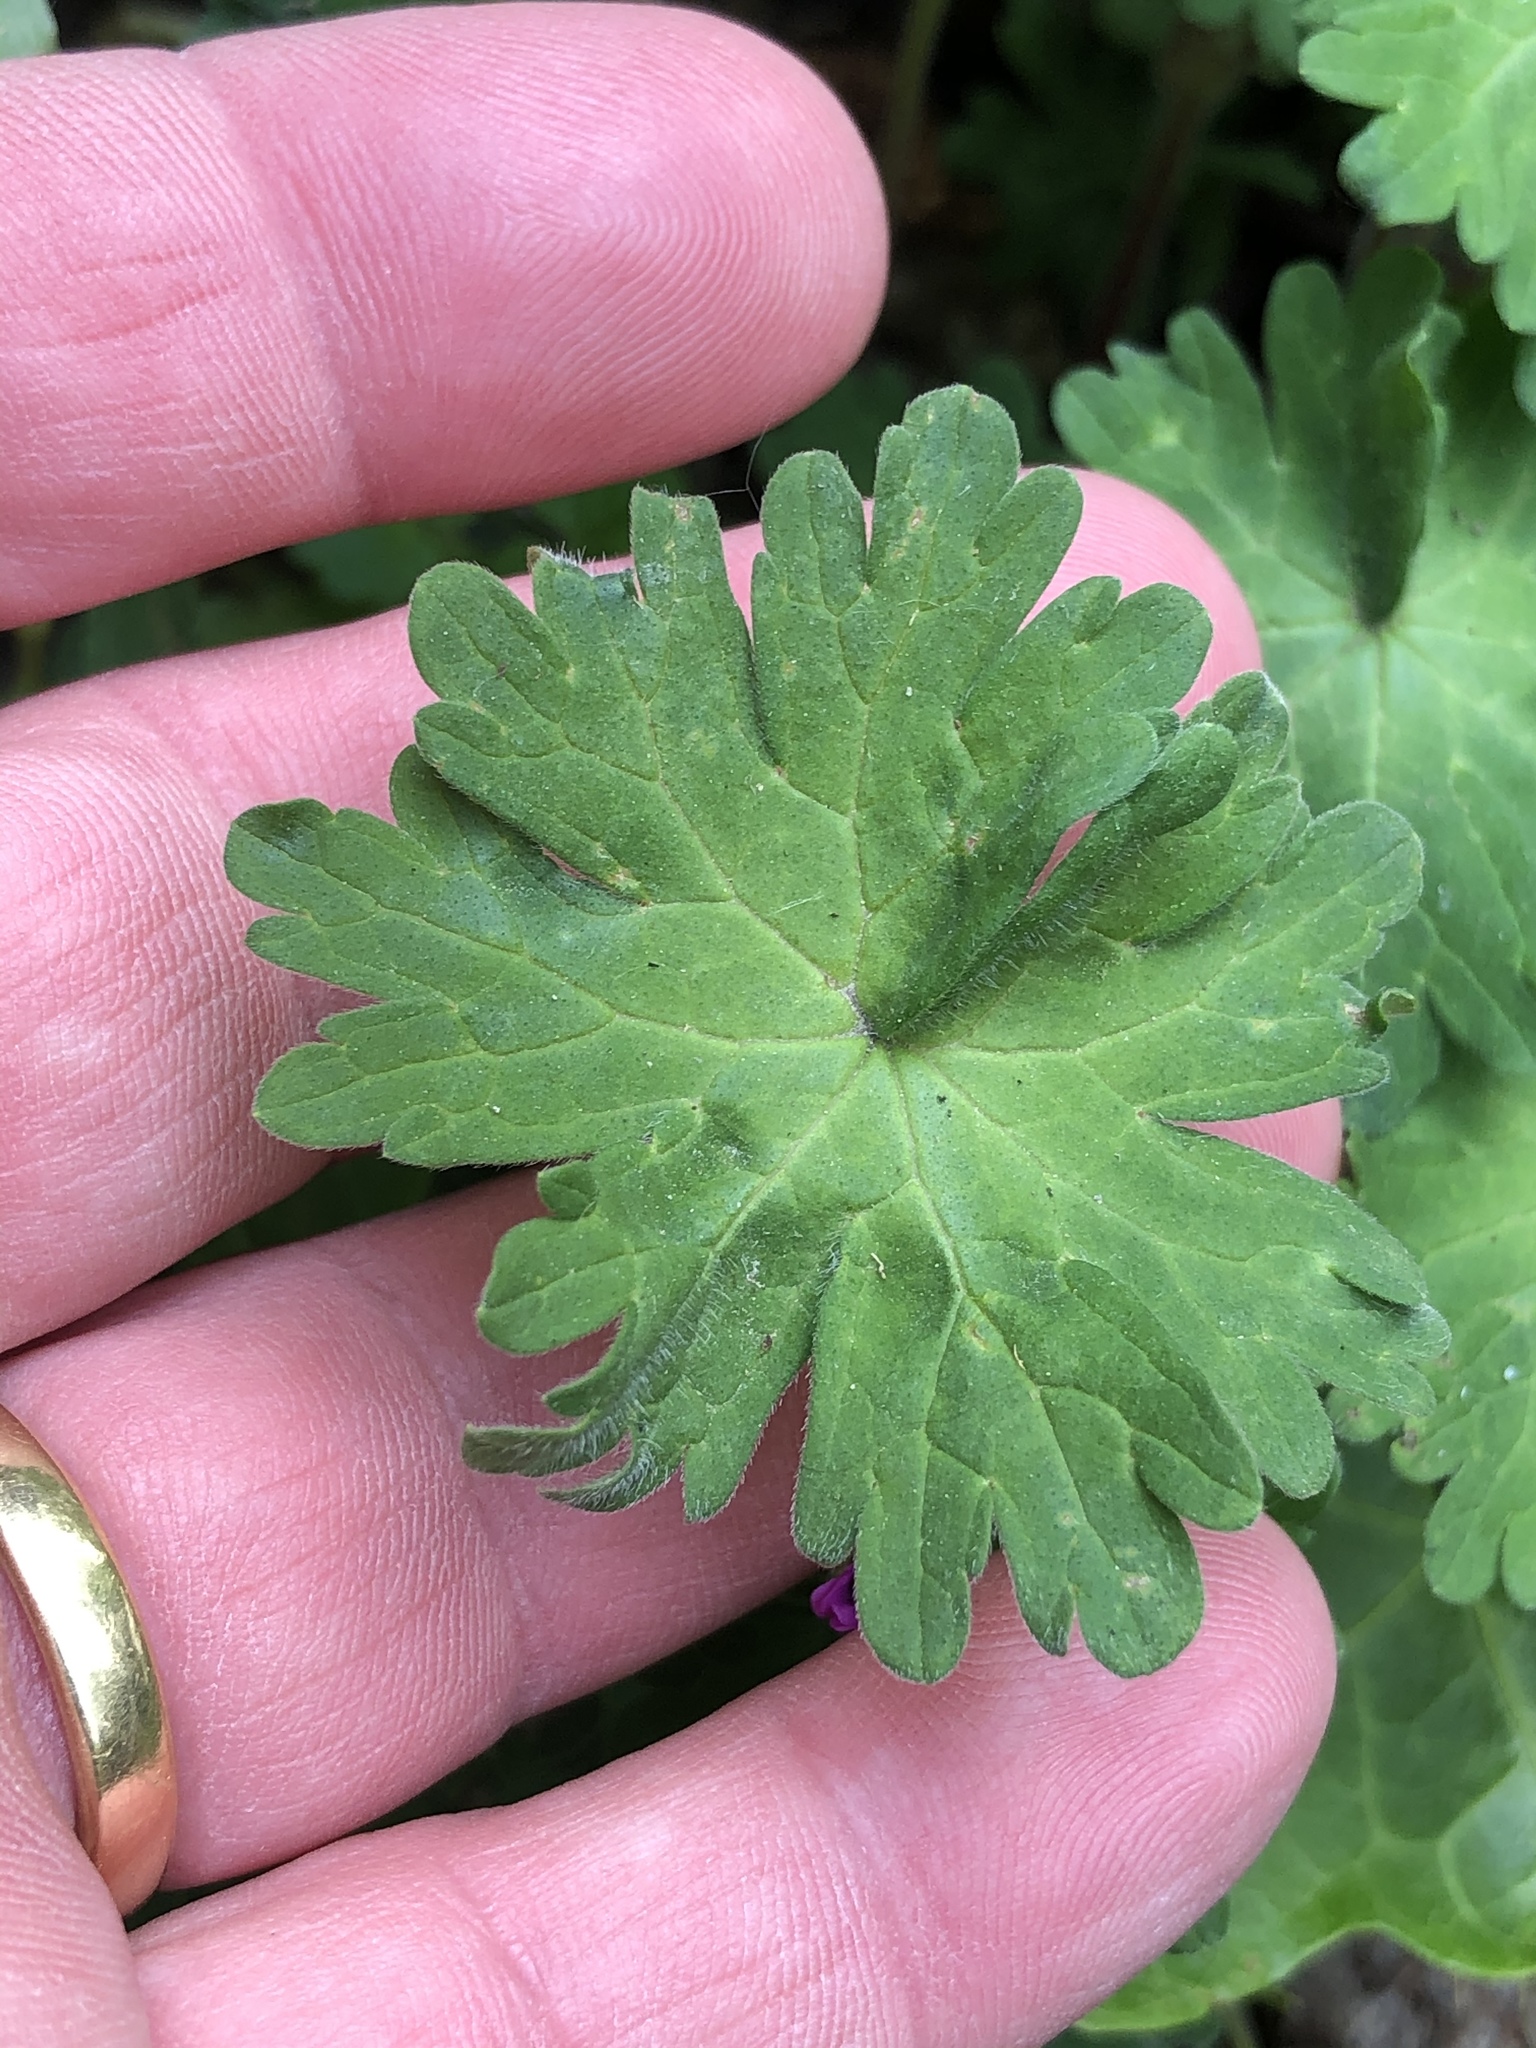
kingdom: Plantae
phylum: Tracheophyta
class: Magnoliopsida
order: Geraniales
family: Geraniaceae
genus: Geranium
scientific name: Geranium molle
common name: Dove's-foot crane's-bill
